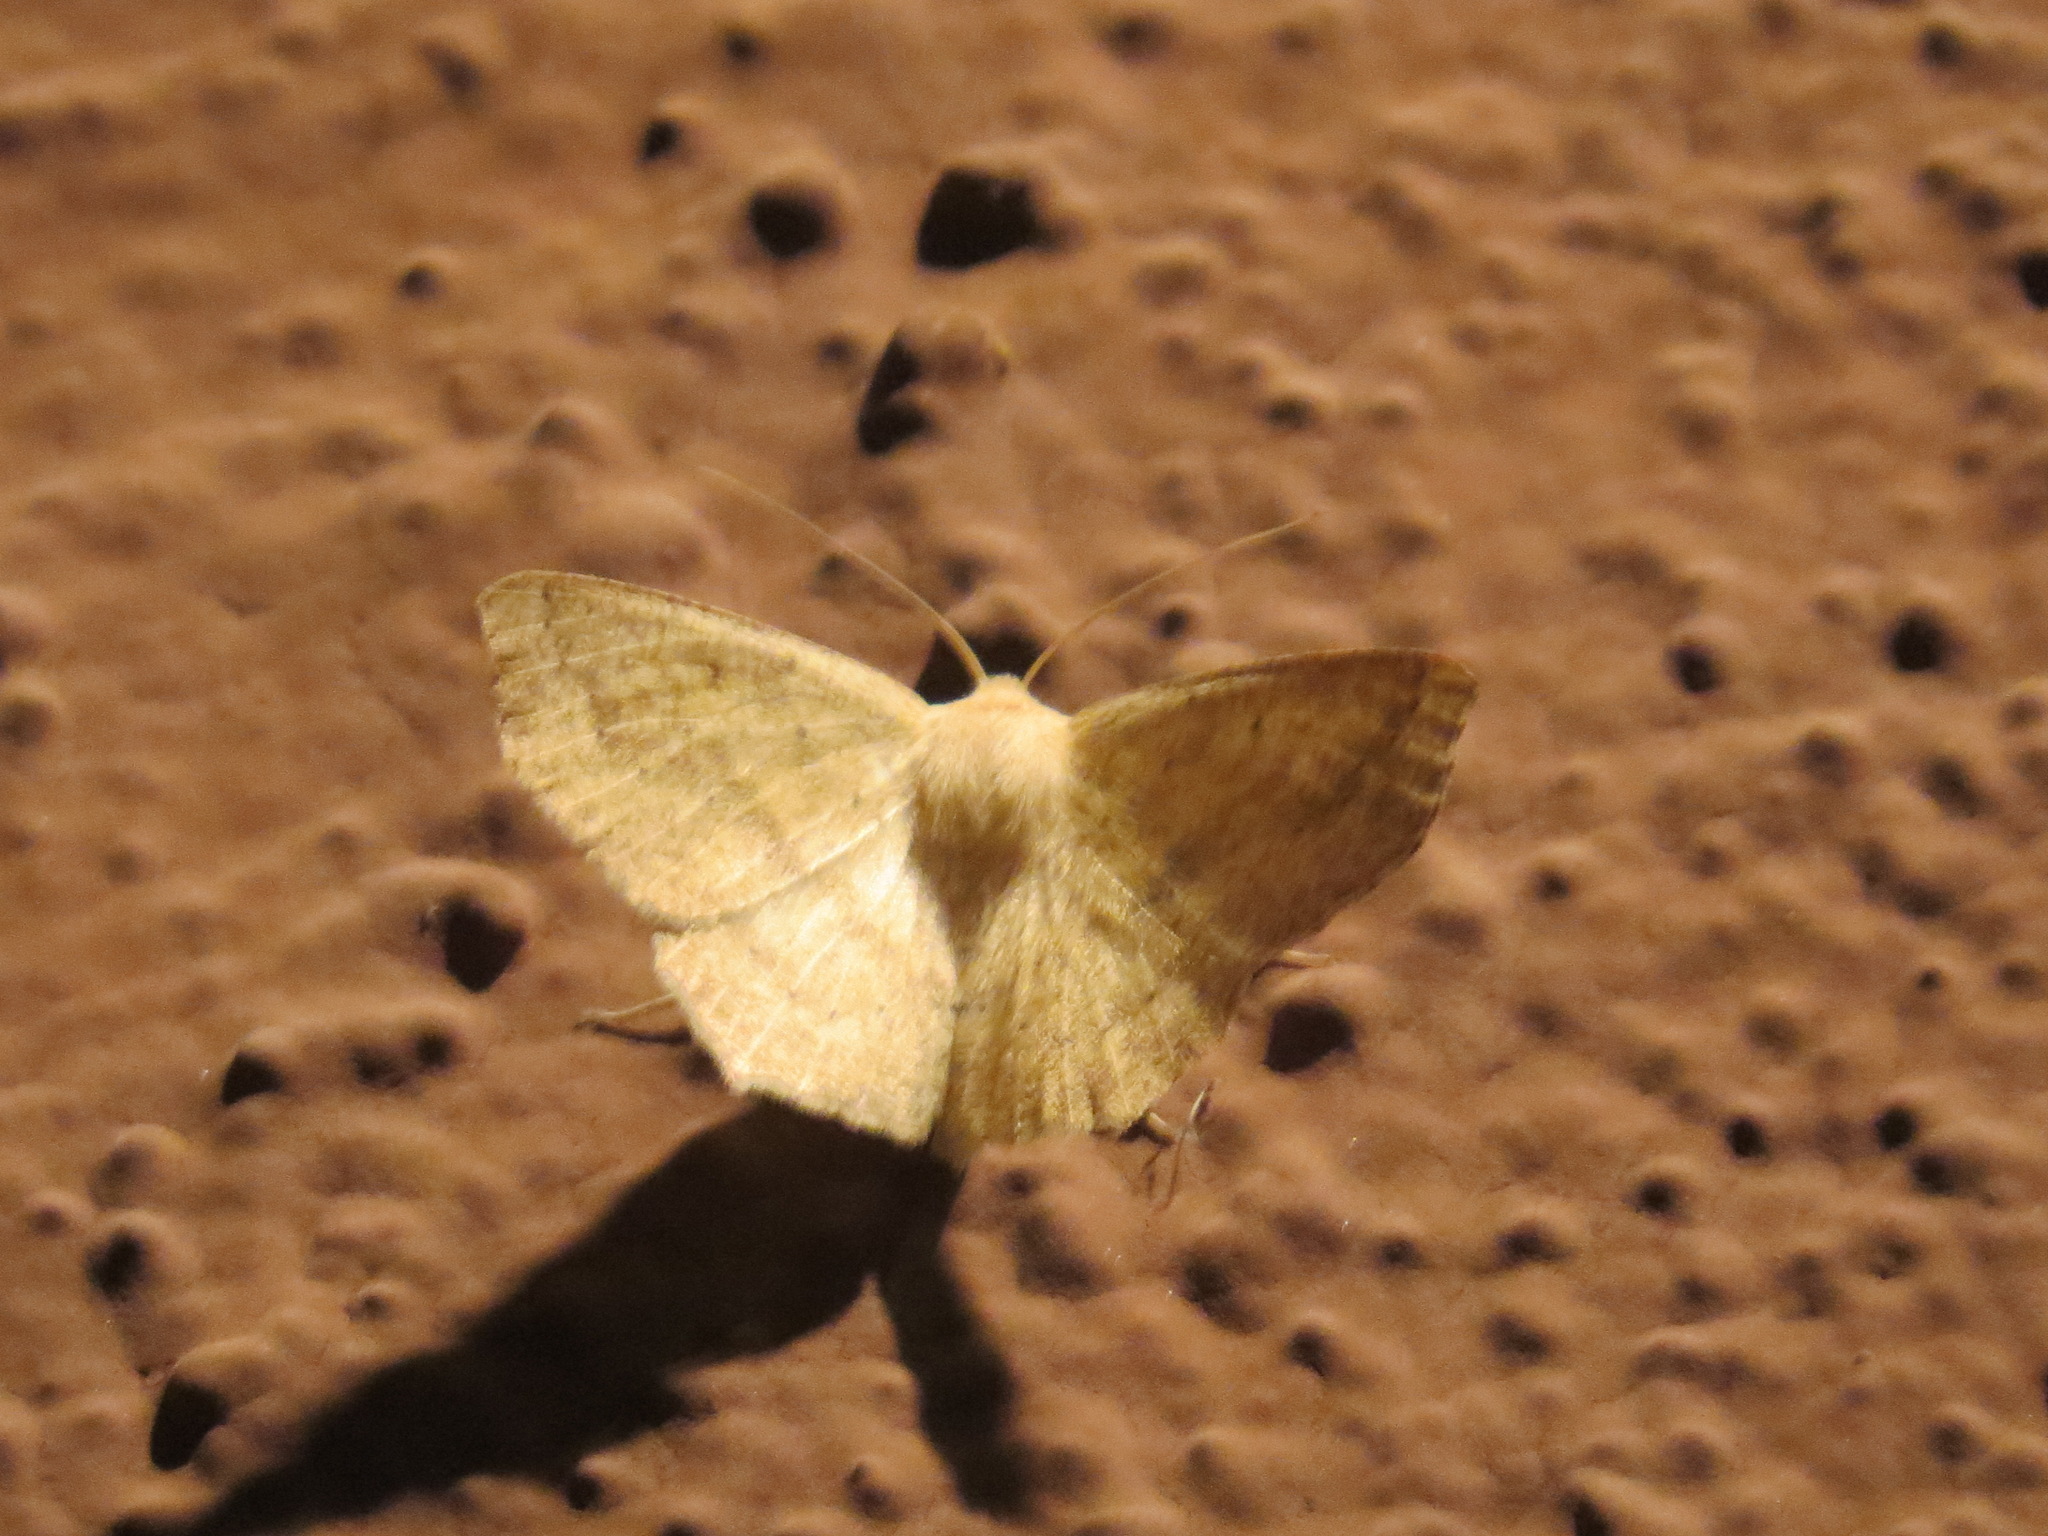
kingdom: Animalia
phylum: Arthropoda
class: Insecta
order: Lepidoptera
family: Geometridae
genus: Sabulodes
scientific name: Sabulodes aegrotata
